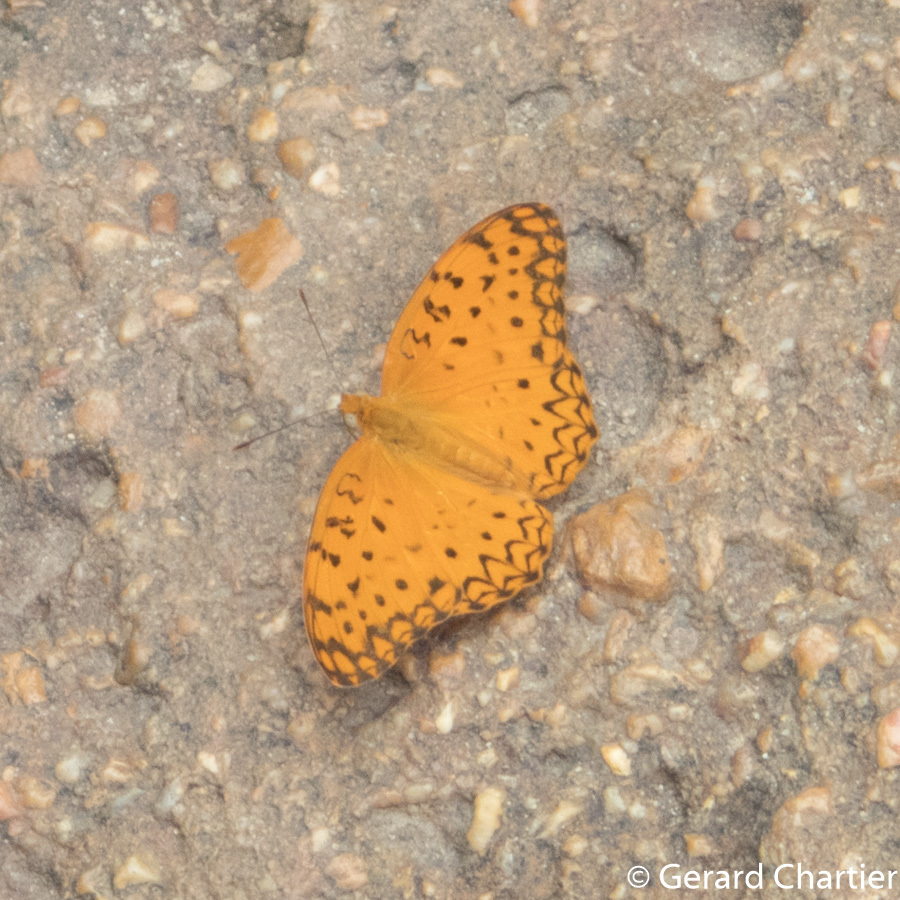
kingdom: Animalia
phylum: Arthropoda
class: Insecta
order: Lepidoptera
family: Nymphalidae
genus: Phalanta
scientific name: Phalanta phalantha
